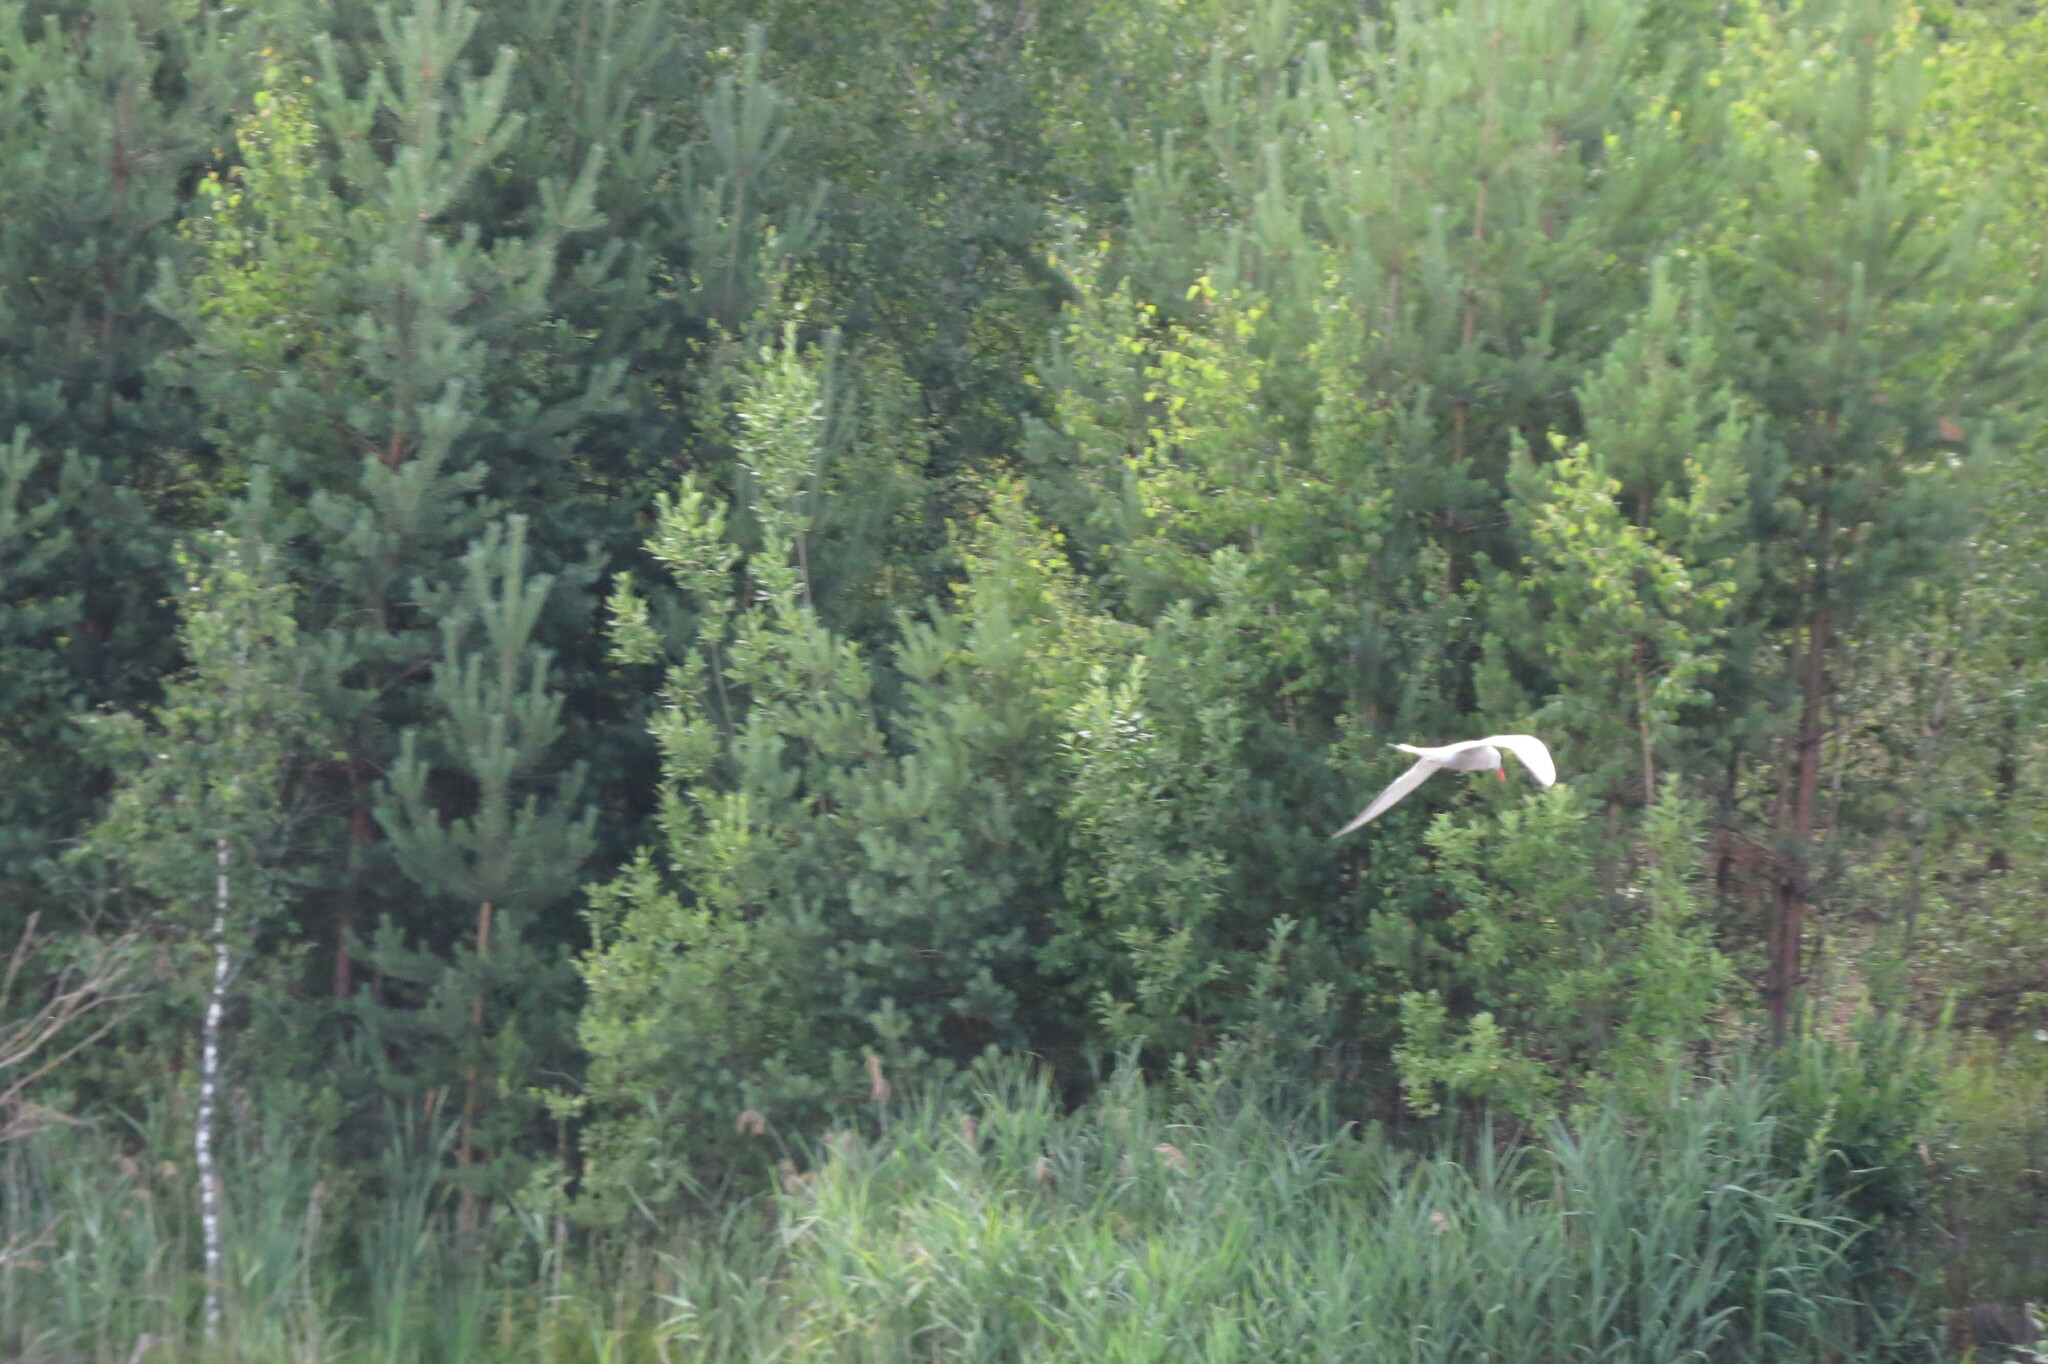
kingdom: Animalia
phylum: Chordata
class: Aves
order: Charadriiformes
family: Laridae
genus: Sterna
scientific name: Sterna hirundo
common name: Common tern
